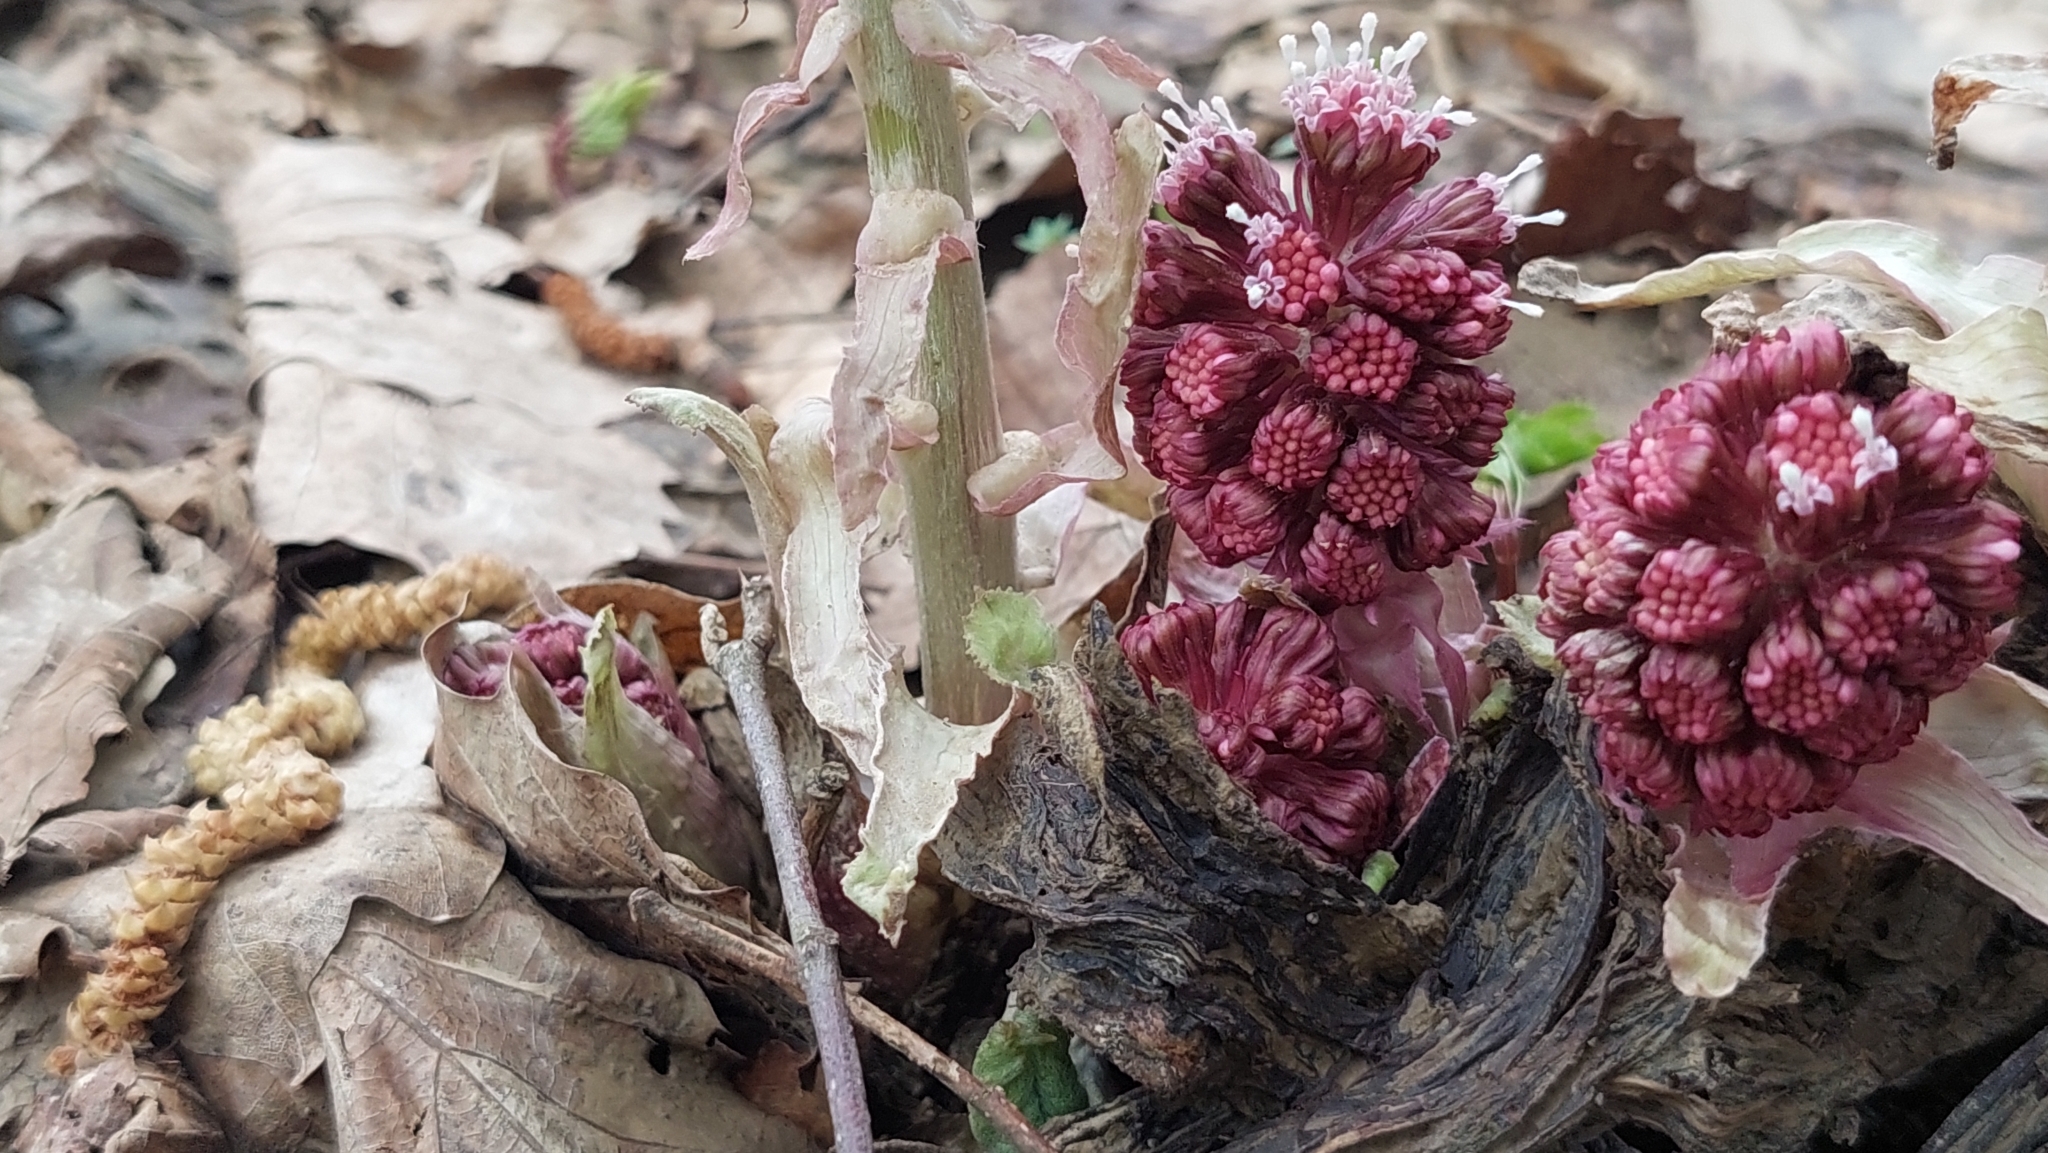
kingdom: Plantae
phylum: Tracheophyta
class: Magnoliopsida
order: Asterales
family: Asteraceae
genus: Petasites
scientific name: Petasites hybridus
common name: Butterbur
